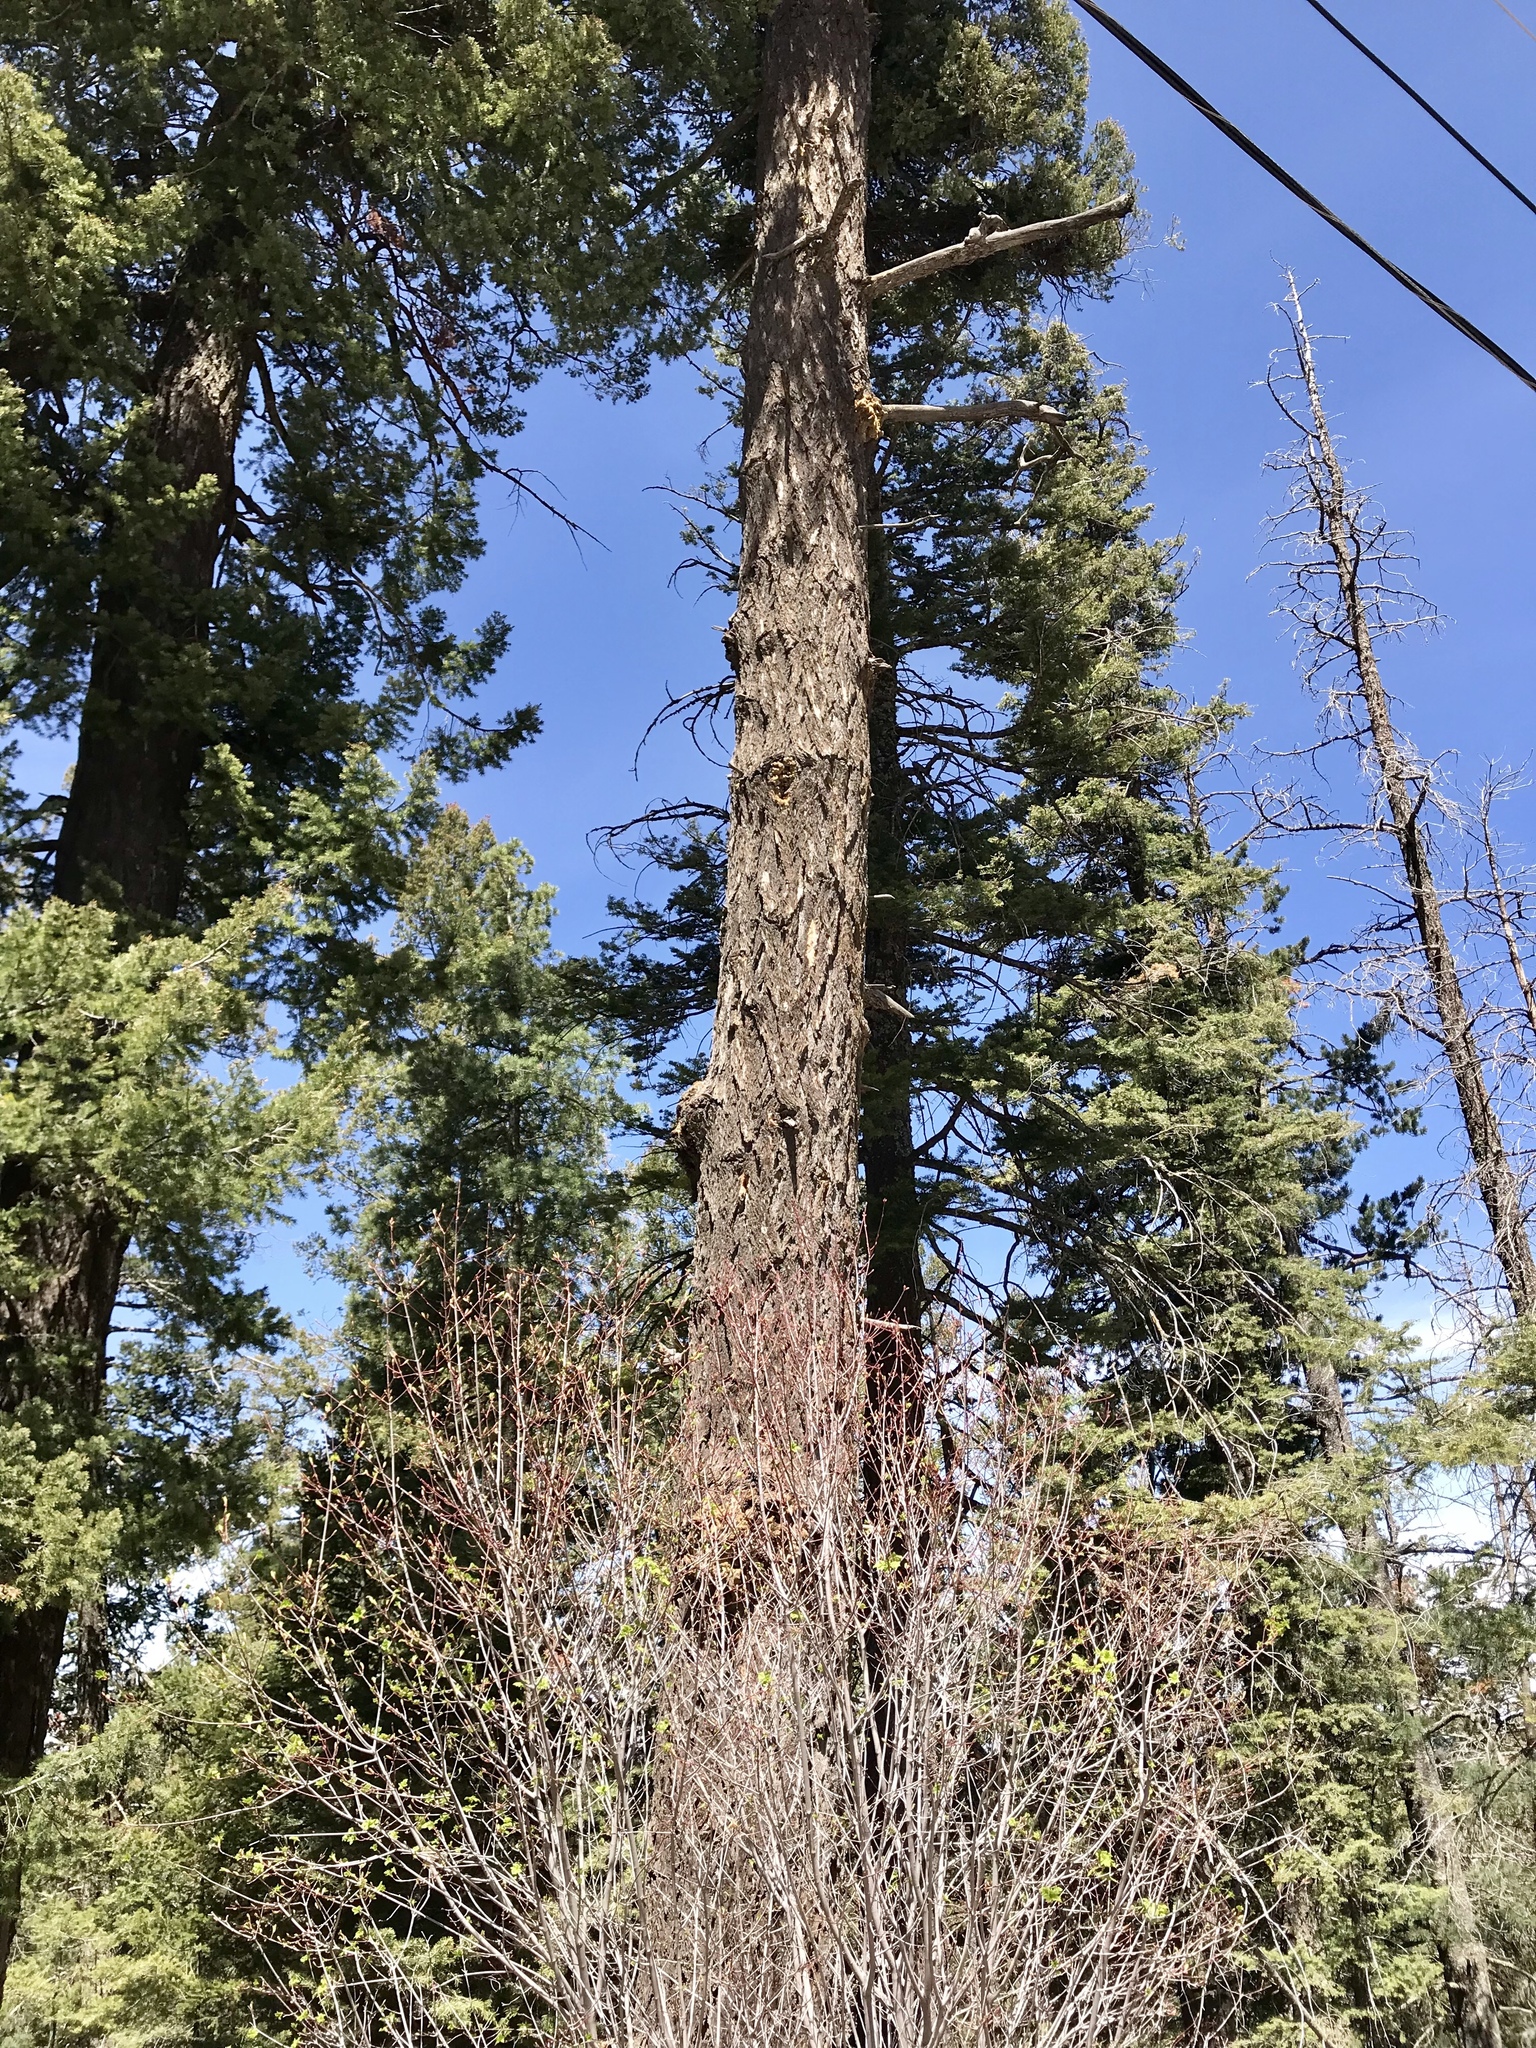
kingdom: Plantae
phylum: Tracheophyta
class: Pinopsida
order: Pinales
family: Pinaceae
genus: Pseudotsuga
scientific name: Pseudotsuga menziesii
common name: Douglas fir
